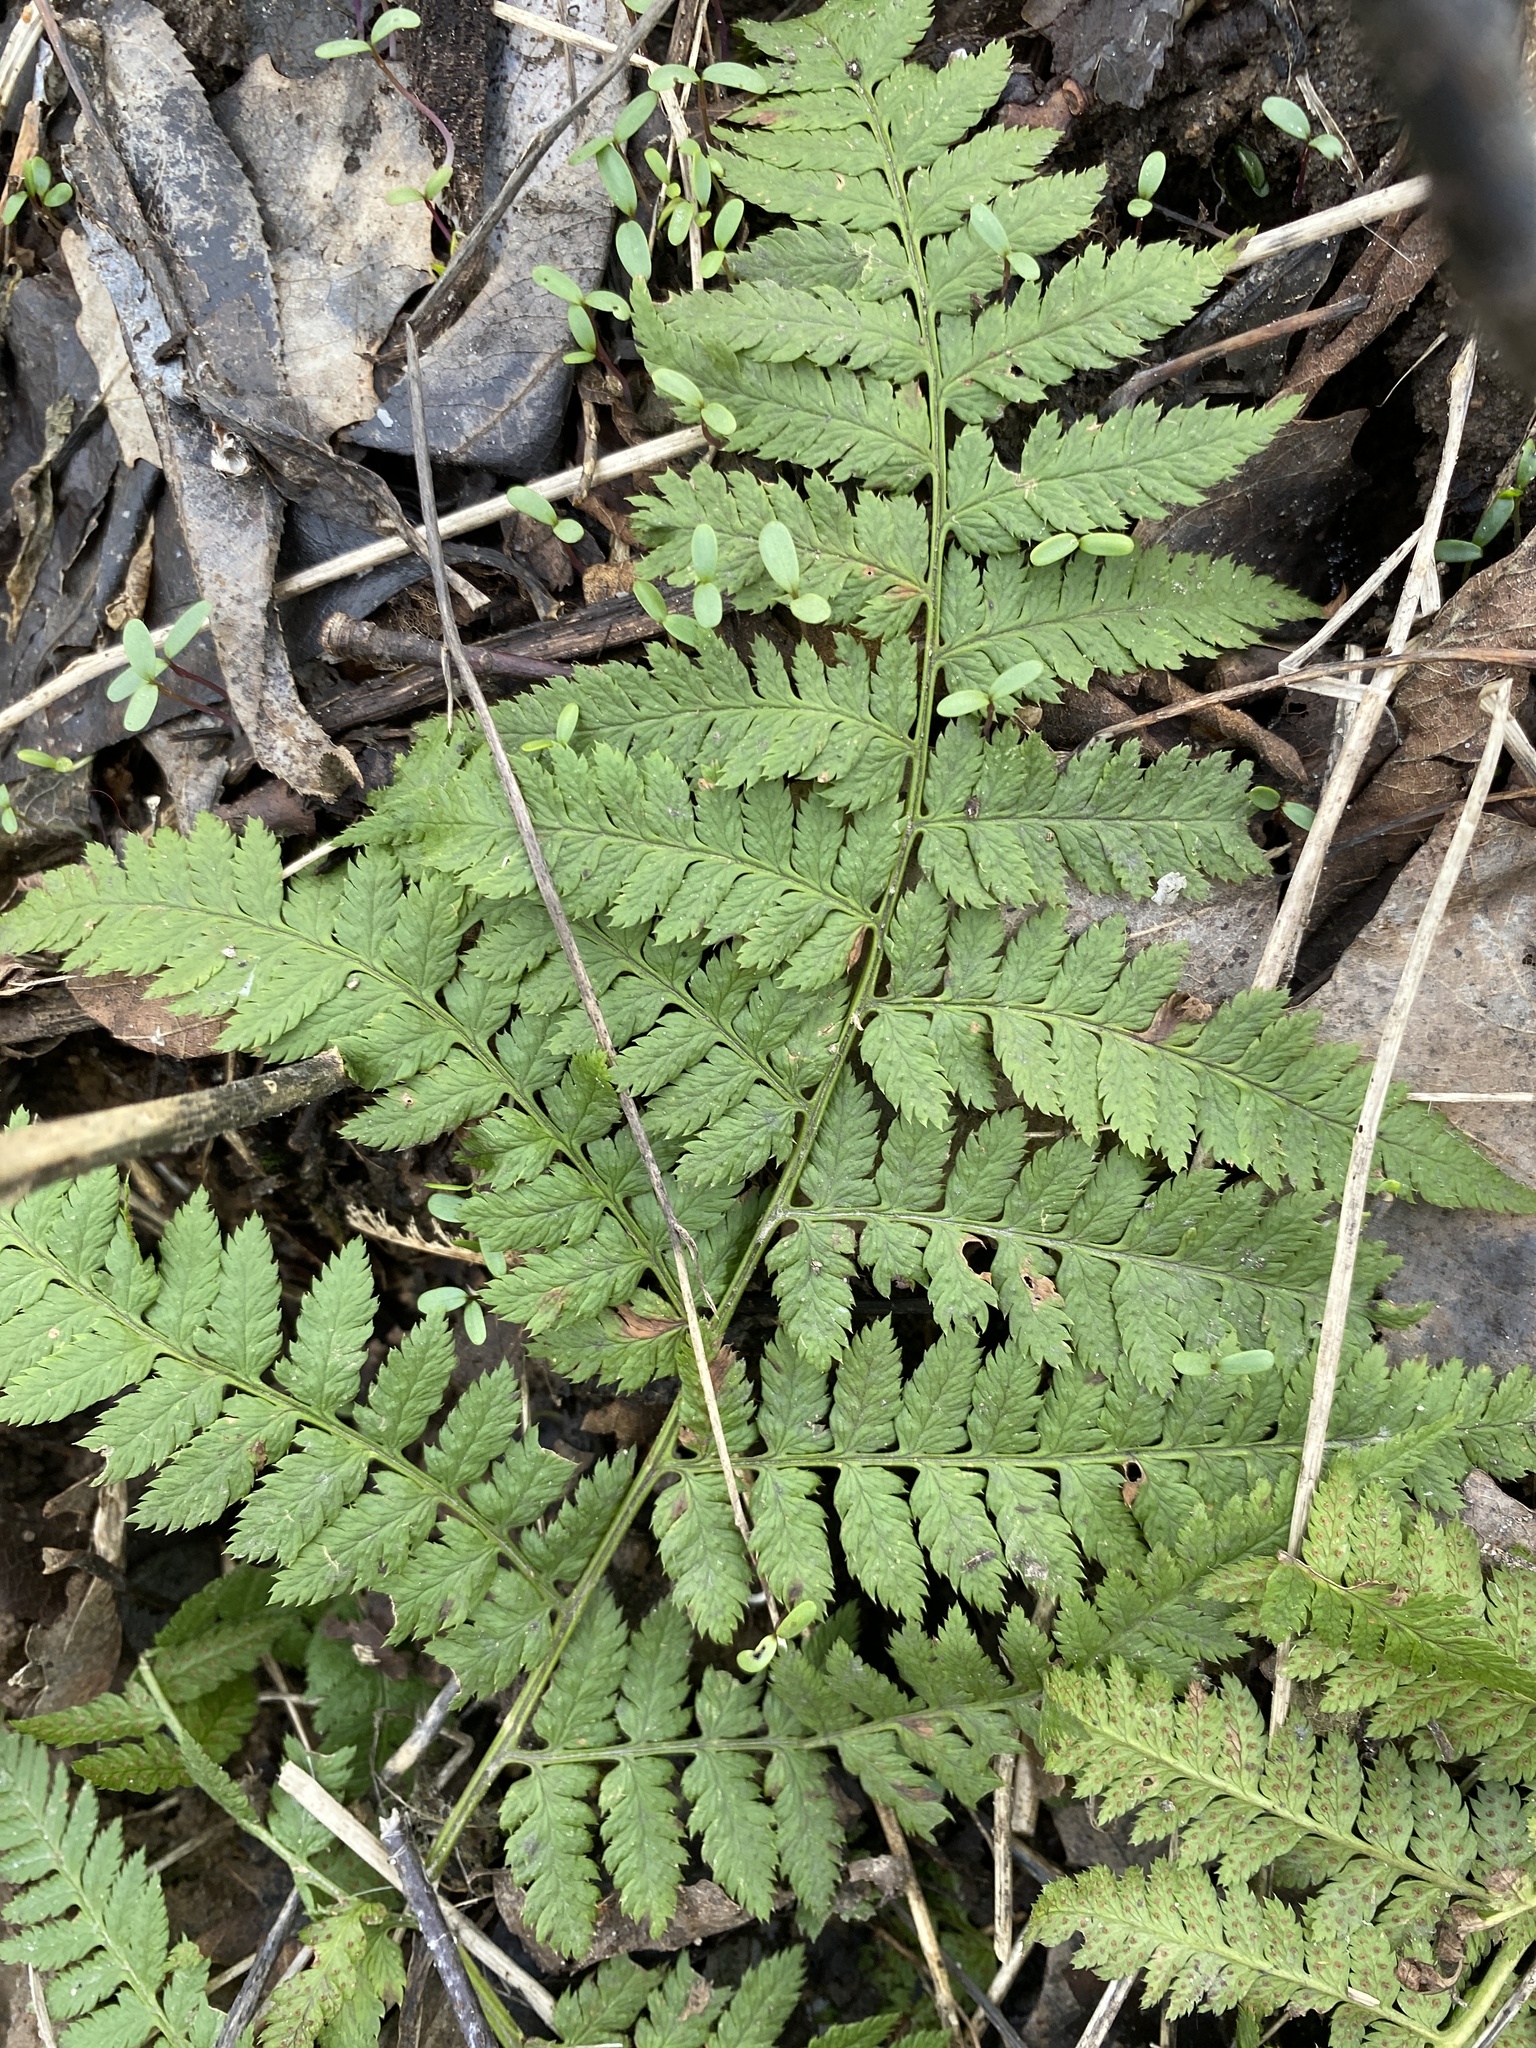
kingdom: Plantae
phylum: Tracheophyta
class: Polypodiopsida
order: Polypodiales
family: Dryopteridaceae
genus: Dryopteris
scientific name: Dryopteris carthusiana
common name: Narrow buckler-fern
